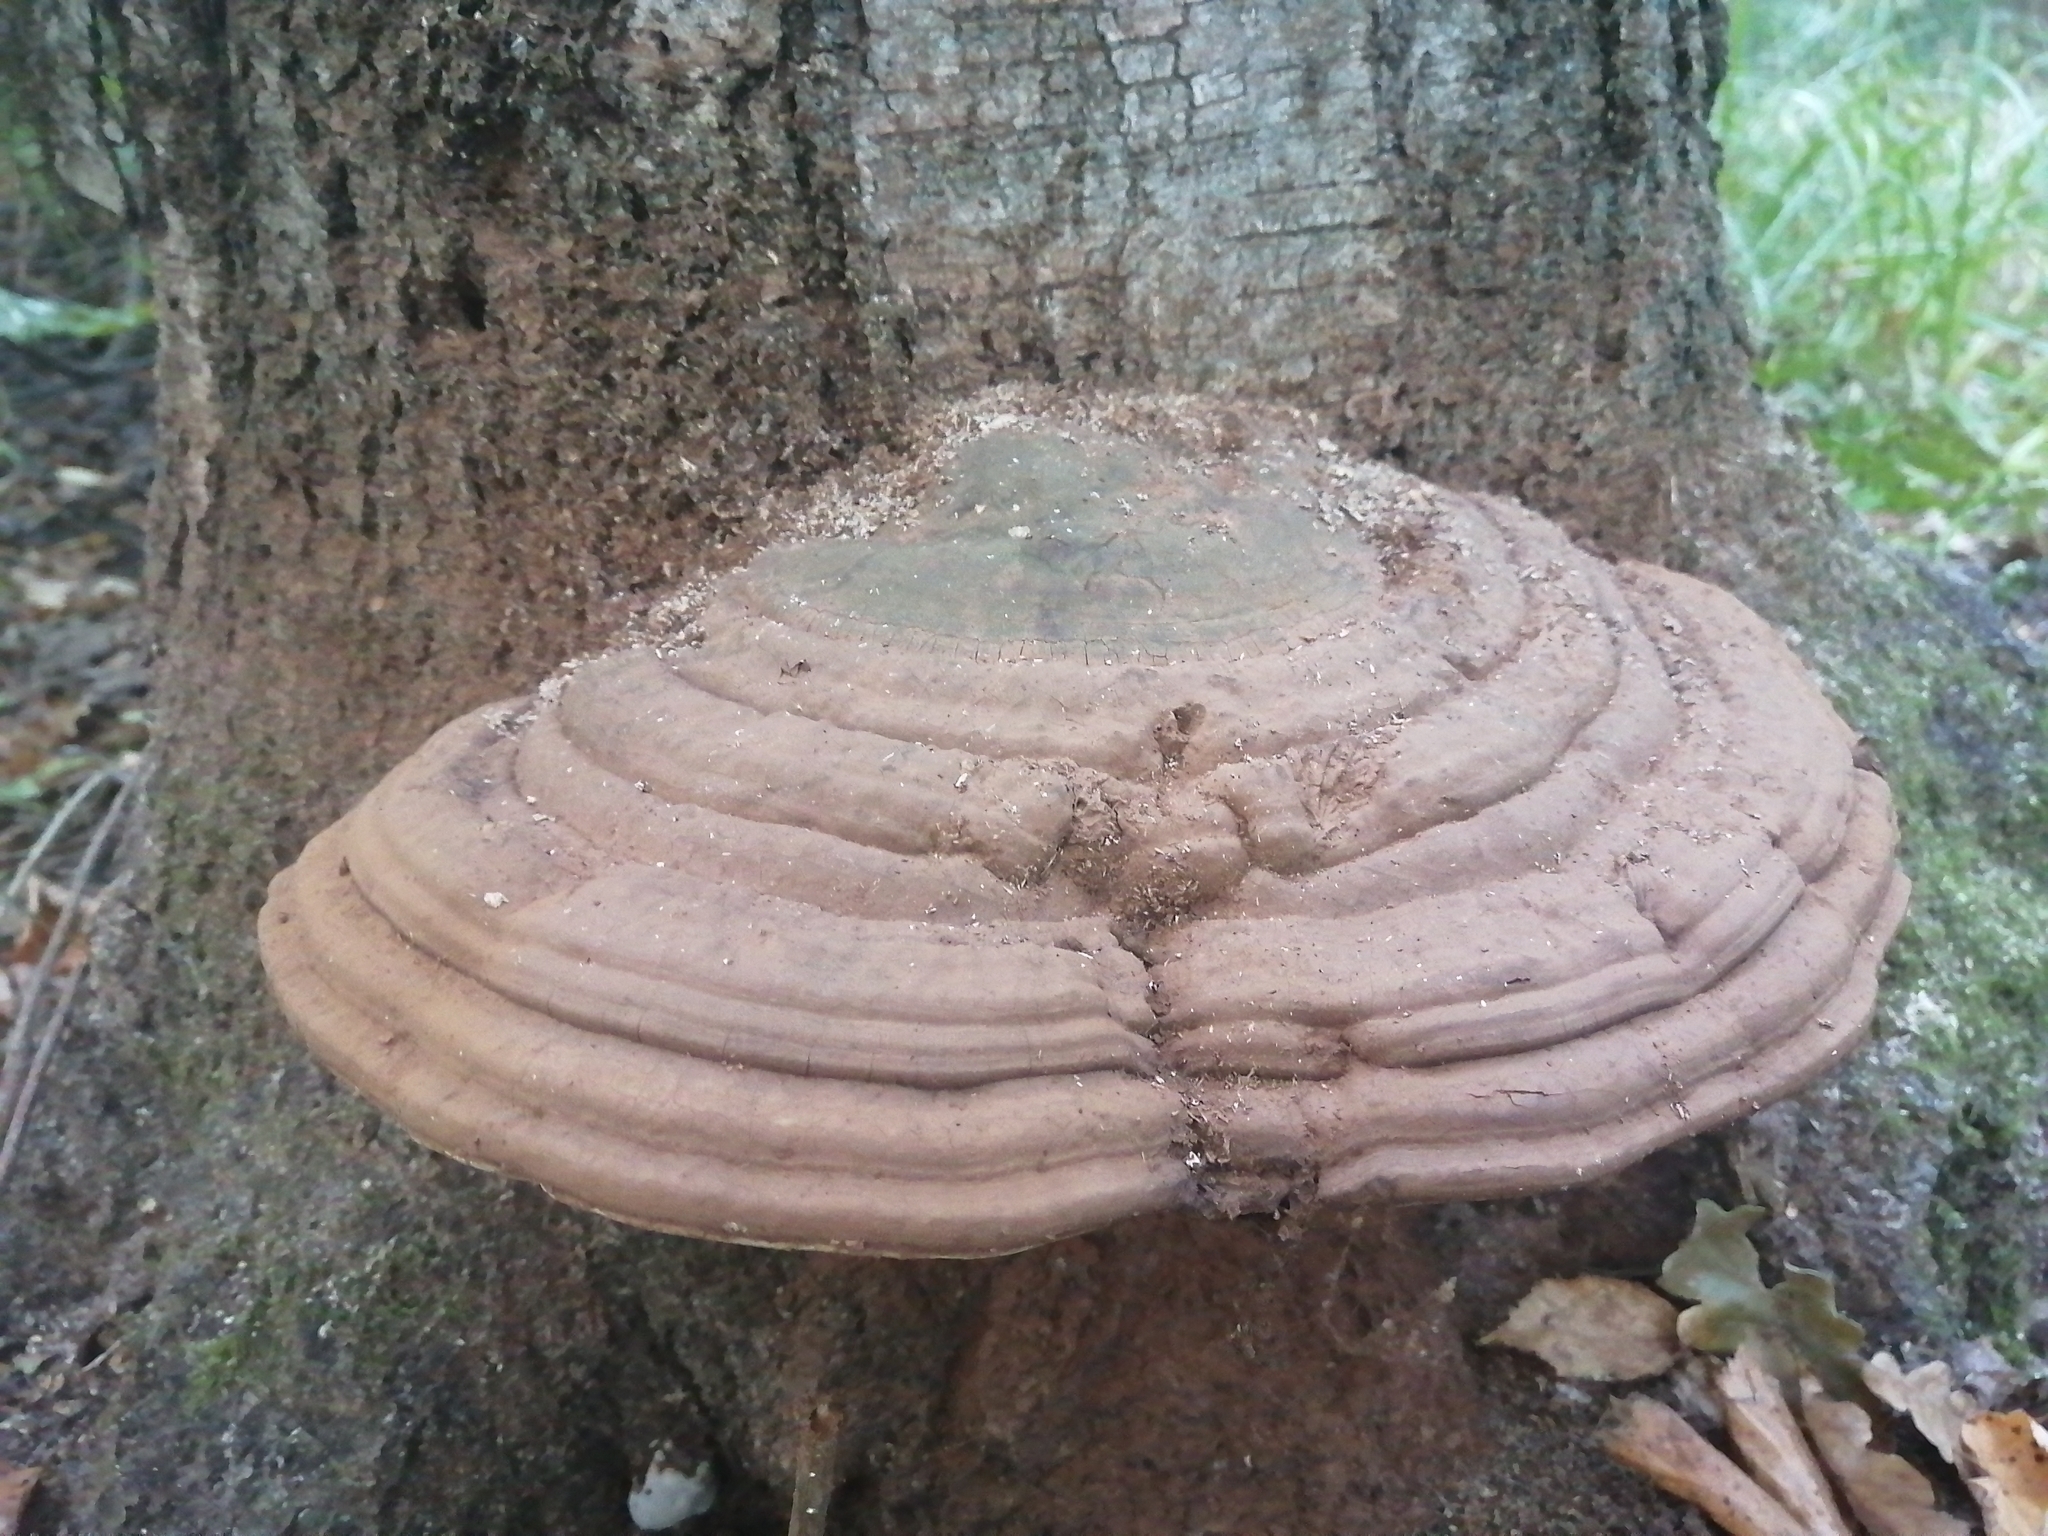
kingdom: Fungi
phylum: Basidiomycota
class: Agaricomycetes
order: Polyporales
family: Polyporaceae
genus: Ganoderma
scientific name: Ganoderma applanatum
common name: Artist's bracket
